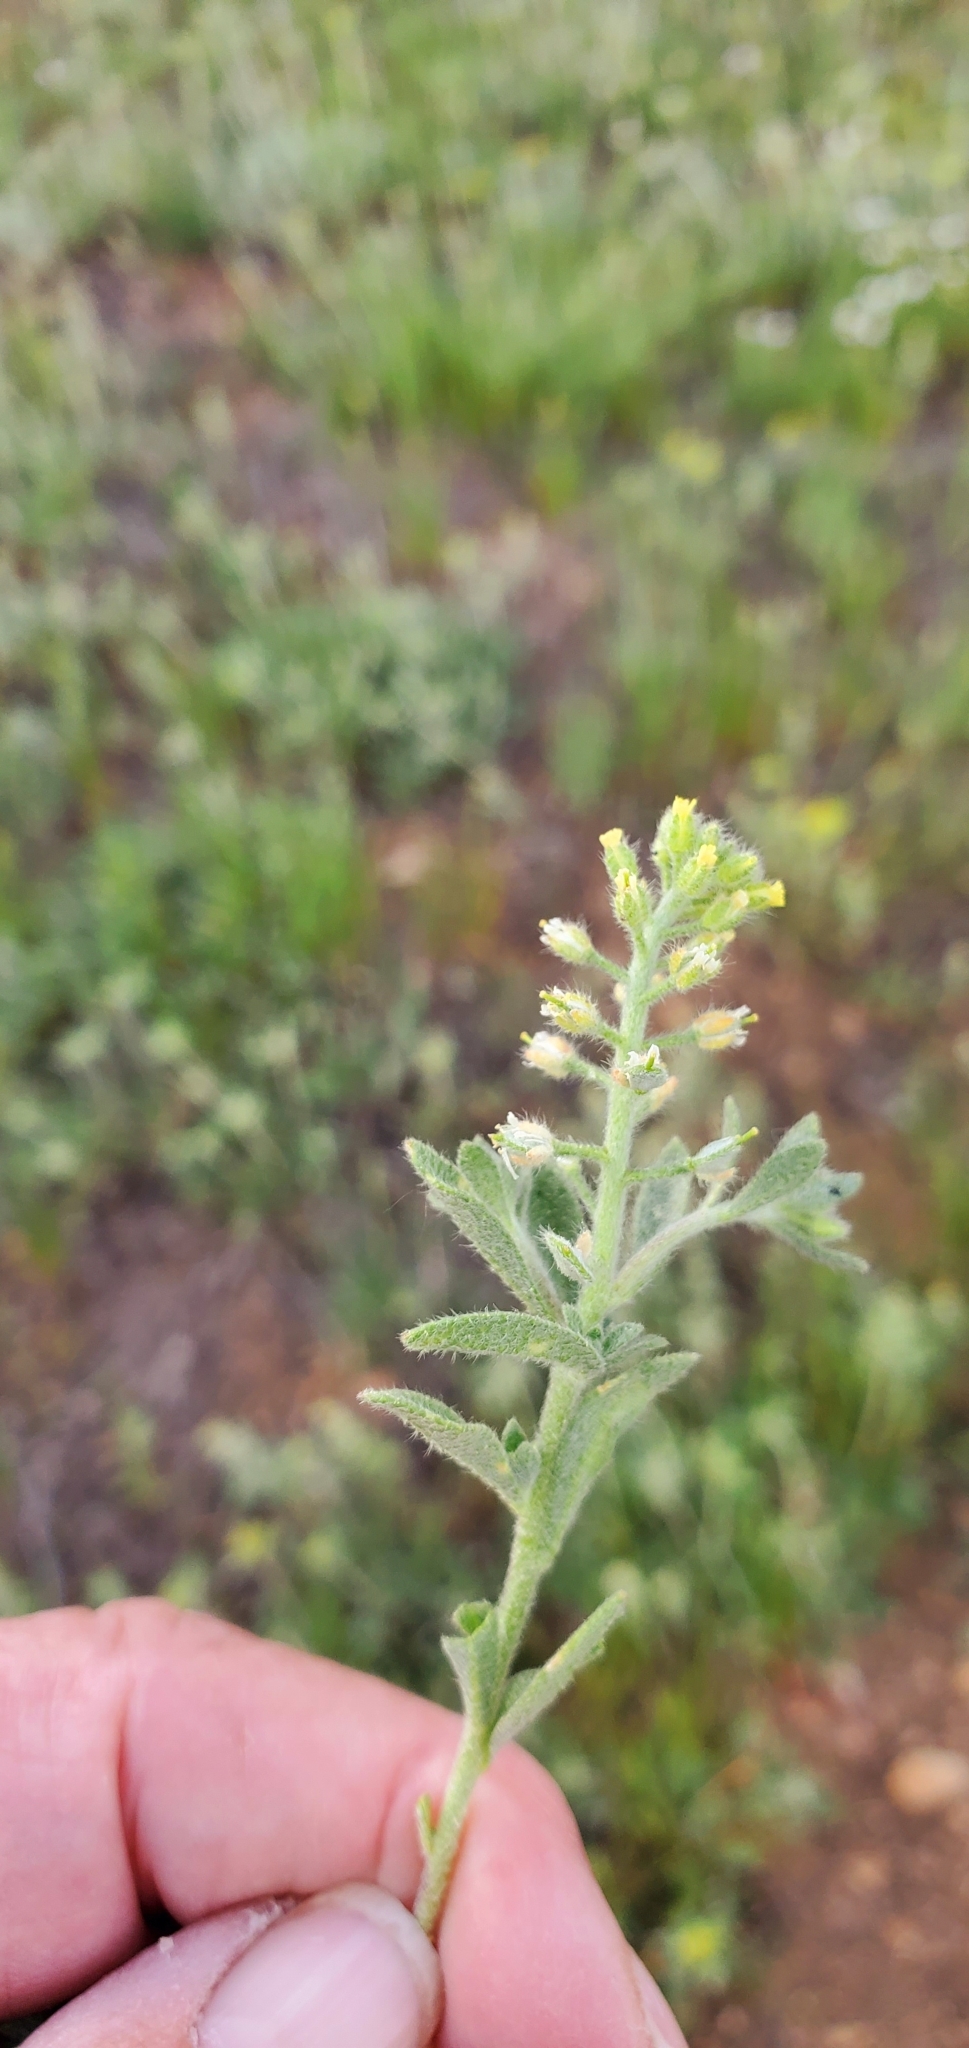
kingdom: Plantae
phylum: Tracheophyta
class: Magnoliopsida
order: Brassicales
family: Brassicaceae
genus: Alyssum
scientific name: Alyssum alyssoides
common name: Small alison
